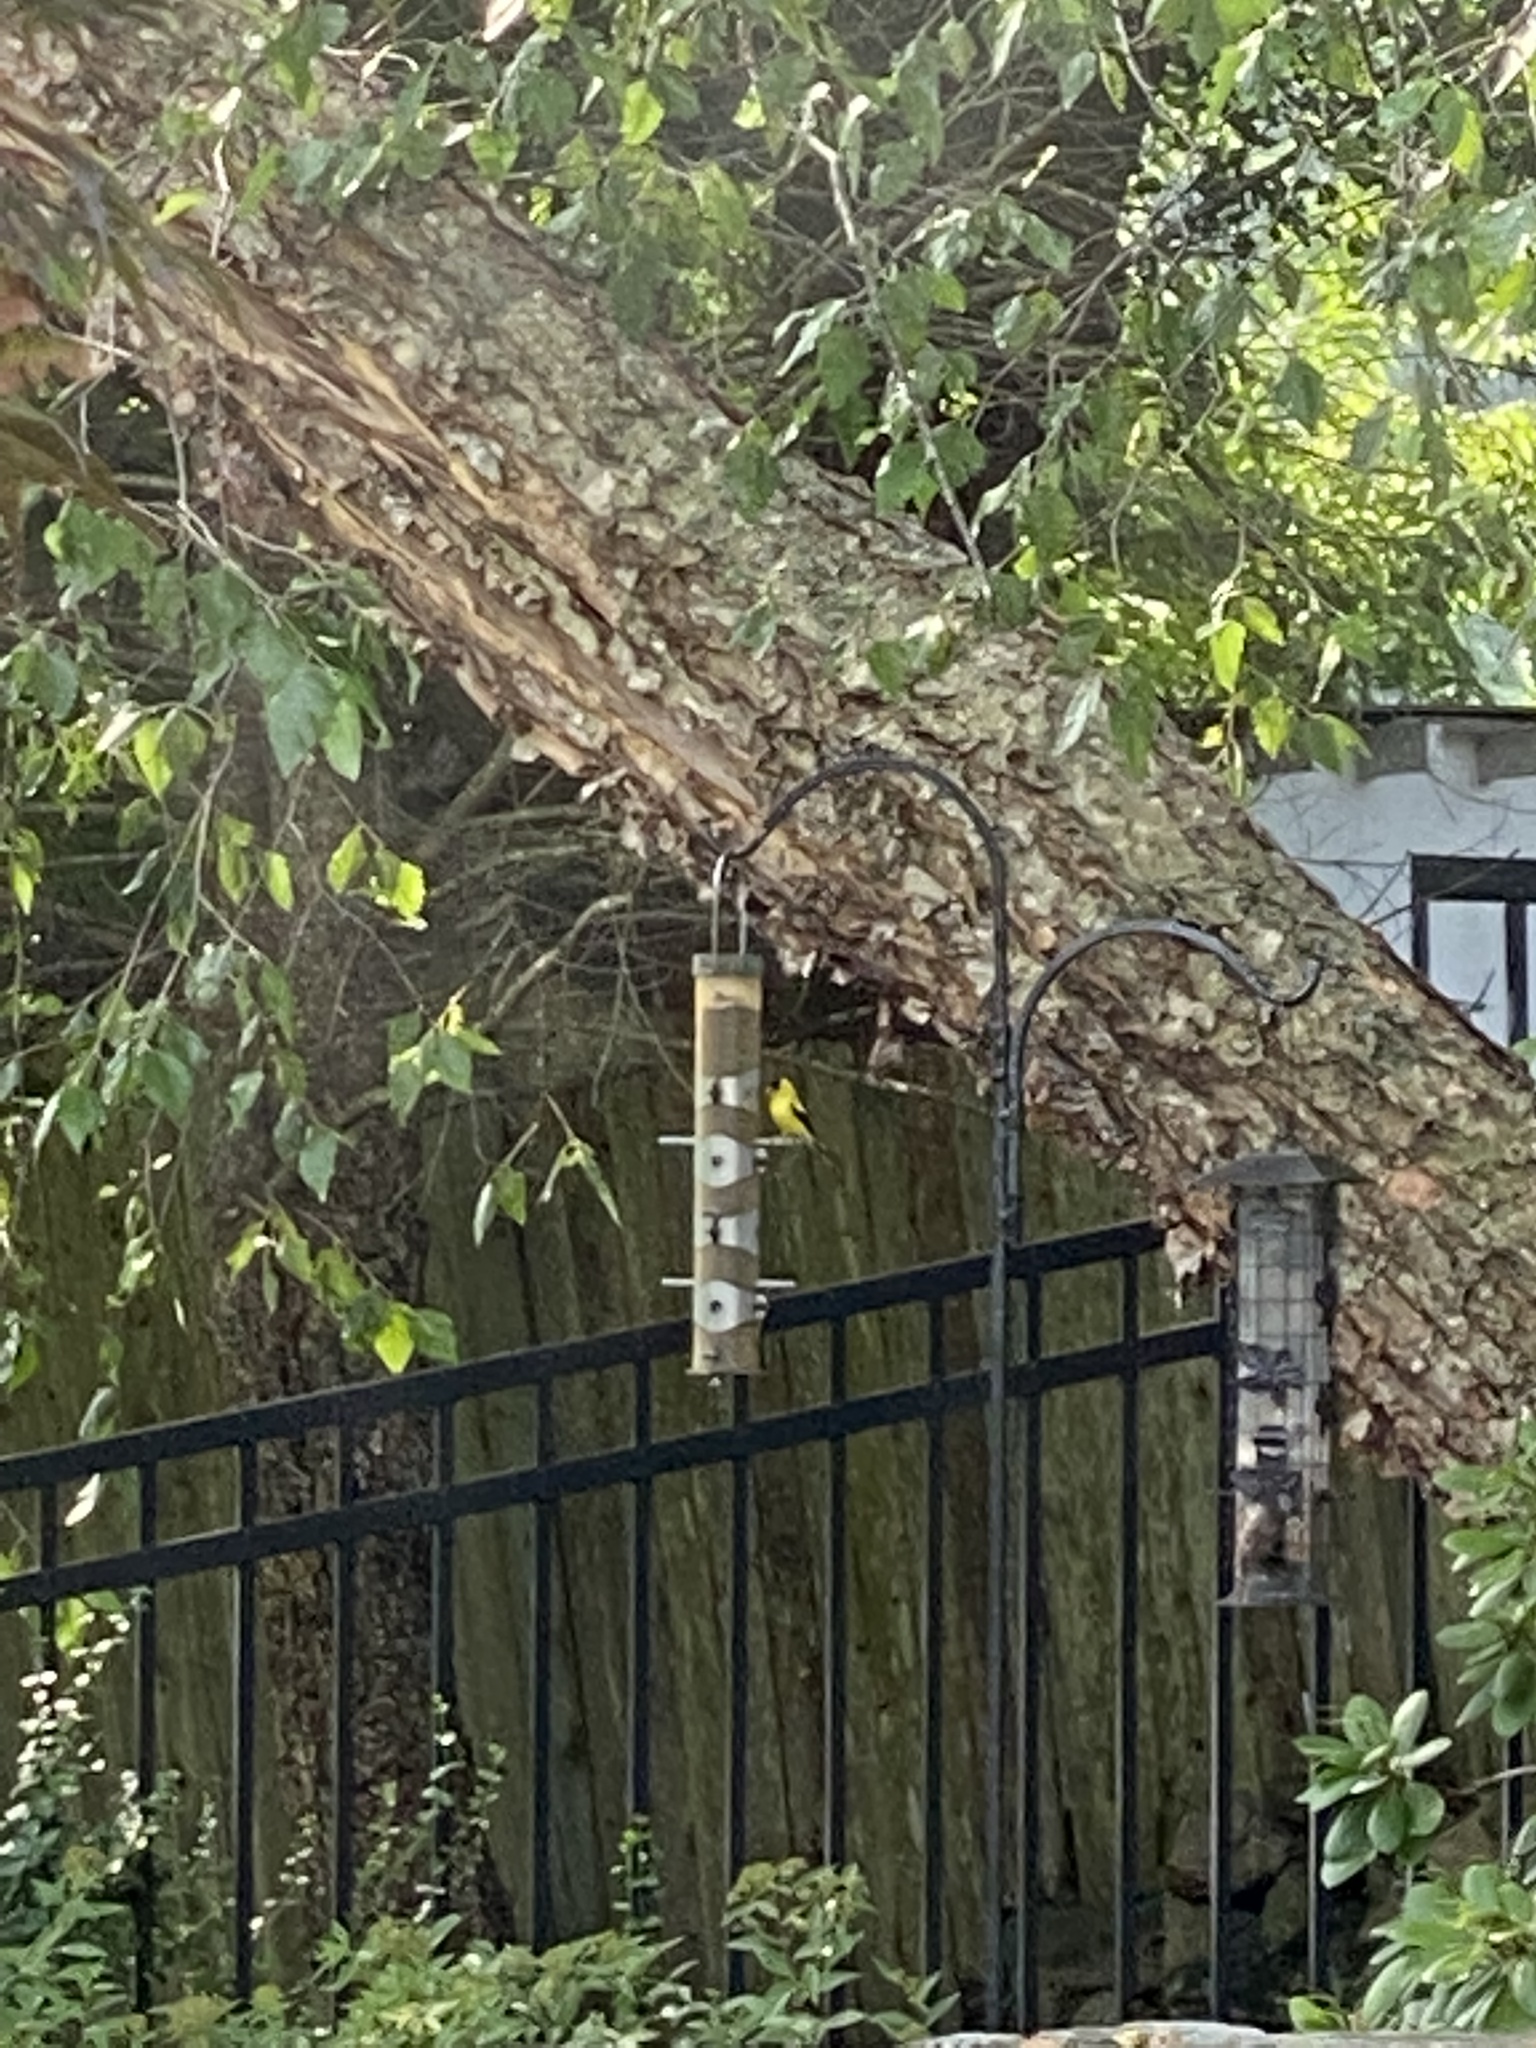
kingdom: Animalia
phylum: Chordata
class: Aves
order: Passeriformes
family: Fringillidae
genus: Spinus
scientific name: Spinus tristis
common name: American goldfinch
